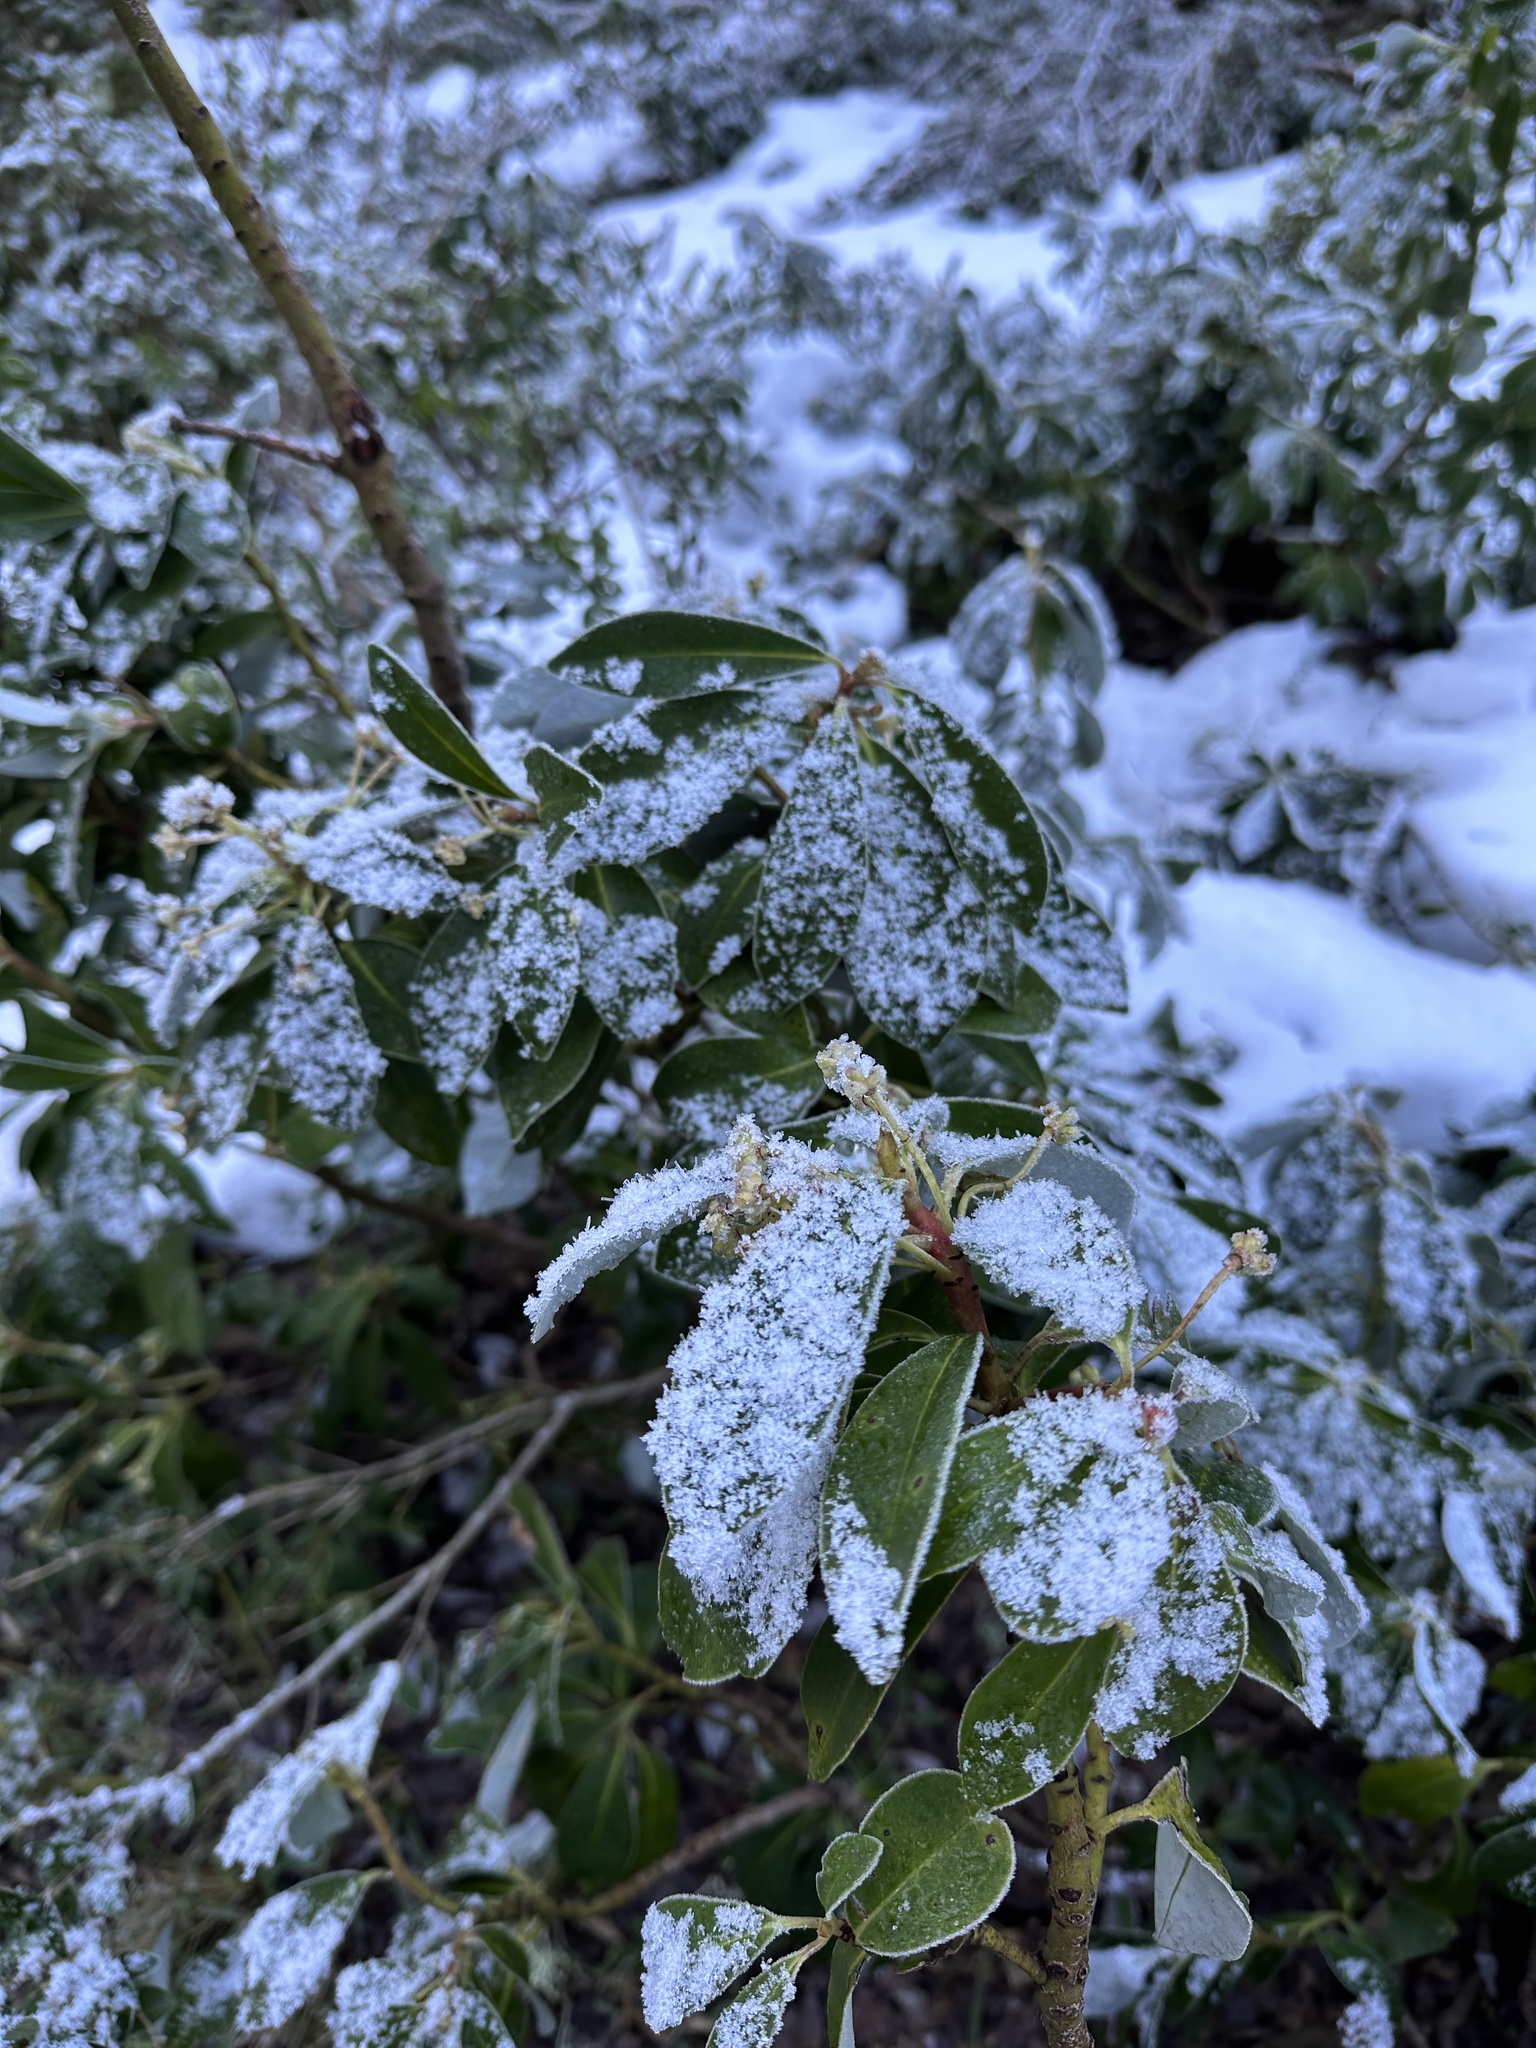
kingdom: Plantae
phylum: Tracheophyta
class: Magnoliopsida
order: Canellales
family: Winteraceae
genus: Drimys
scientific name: Drimys andina
